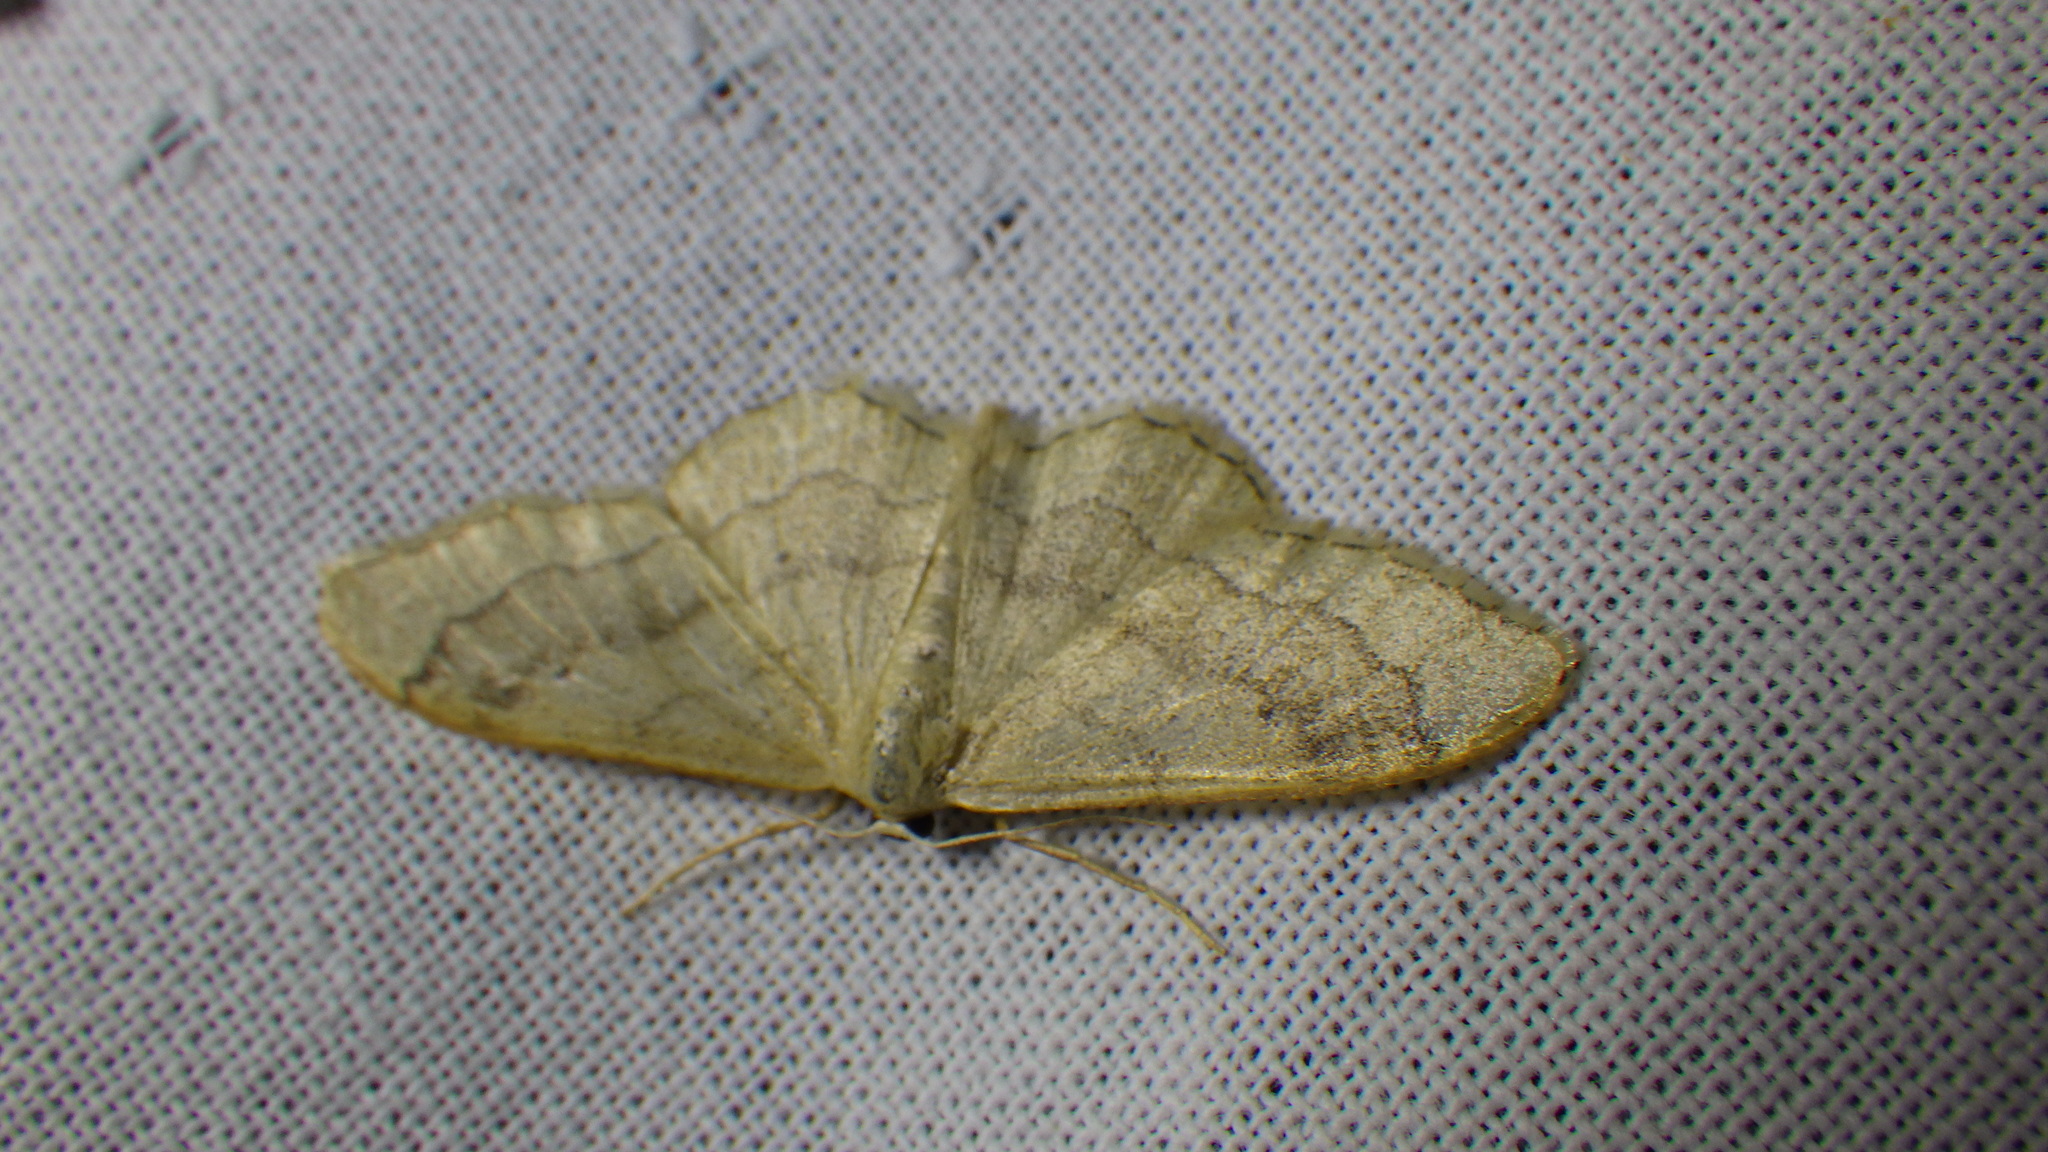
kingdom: Animalia
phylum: Arthropoda
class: Insecta
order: Lepidoptera
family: Geometridae
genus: Idaea
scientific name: Idaea aversata
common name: Riband wave
